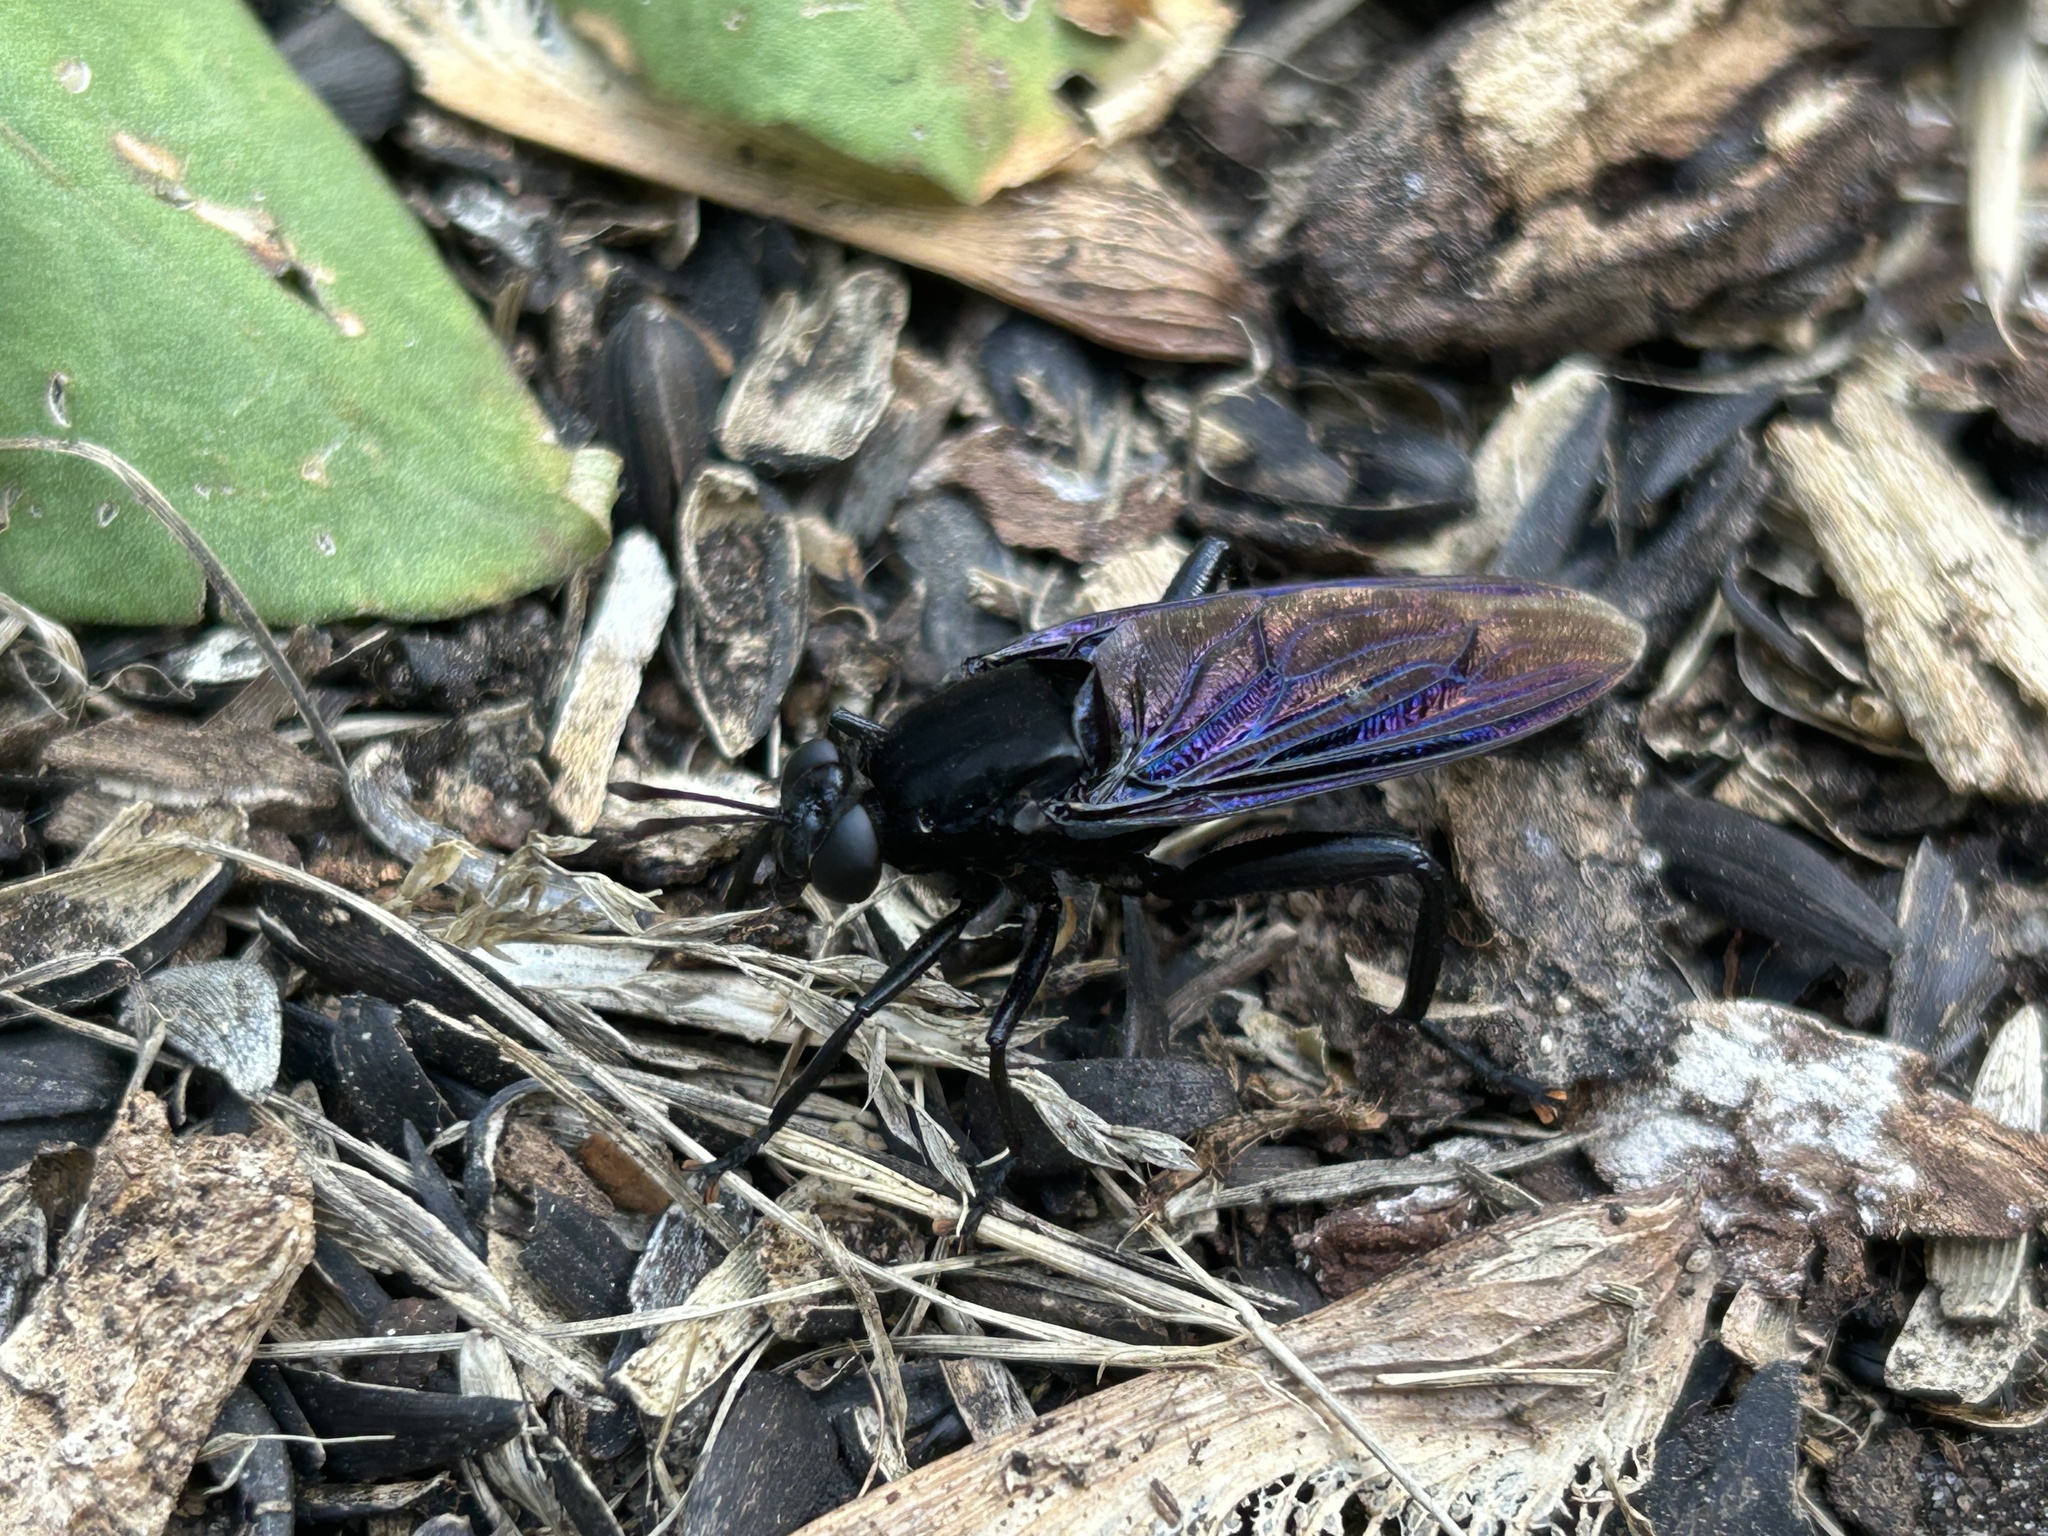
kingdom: Animalia
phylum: Arthropoda
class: Insecta
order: Diptera
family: Mydidae
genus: Mydas
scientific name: Mydas clavatus
